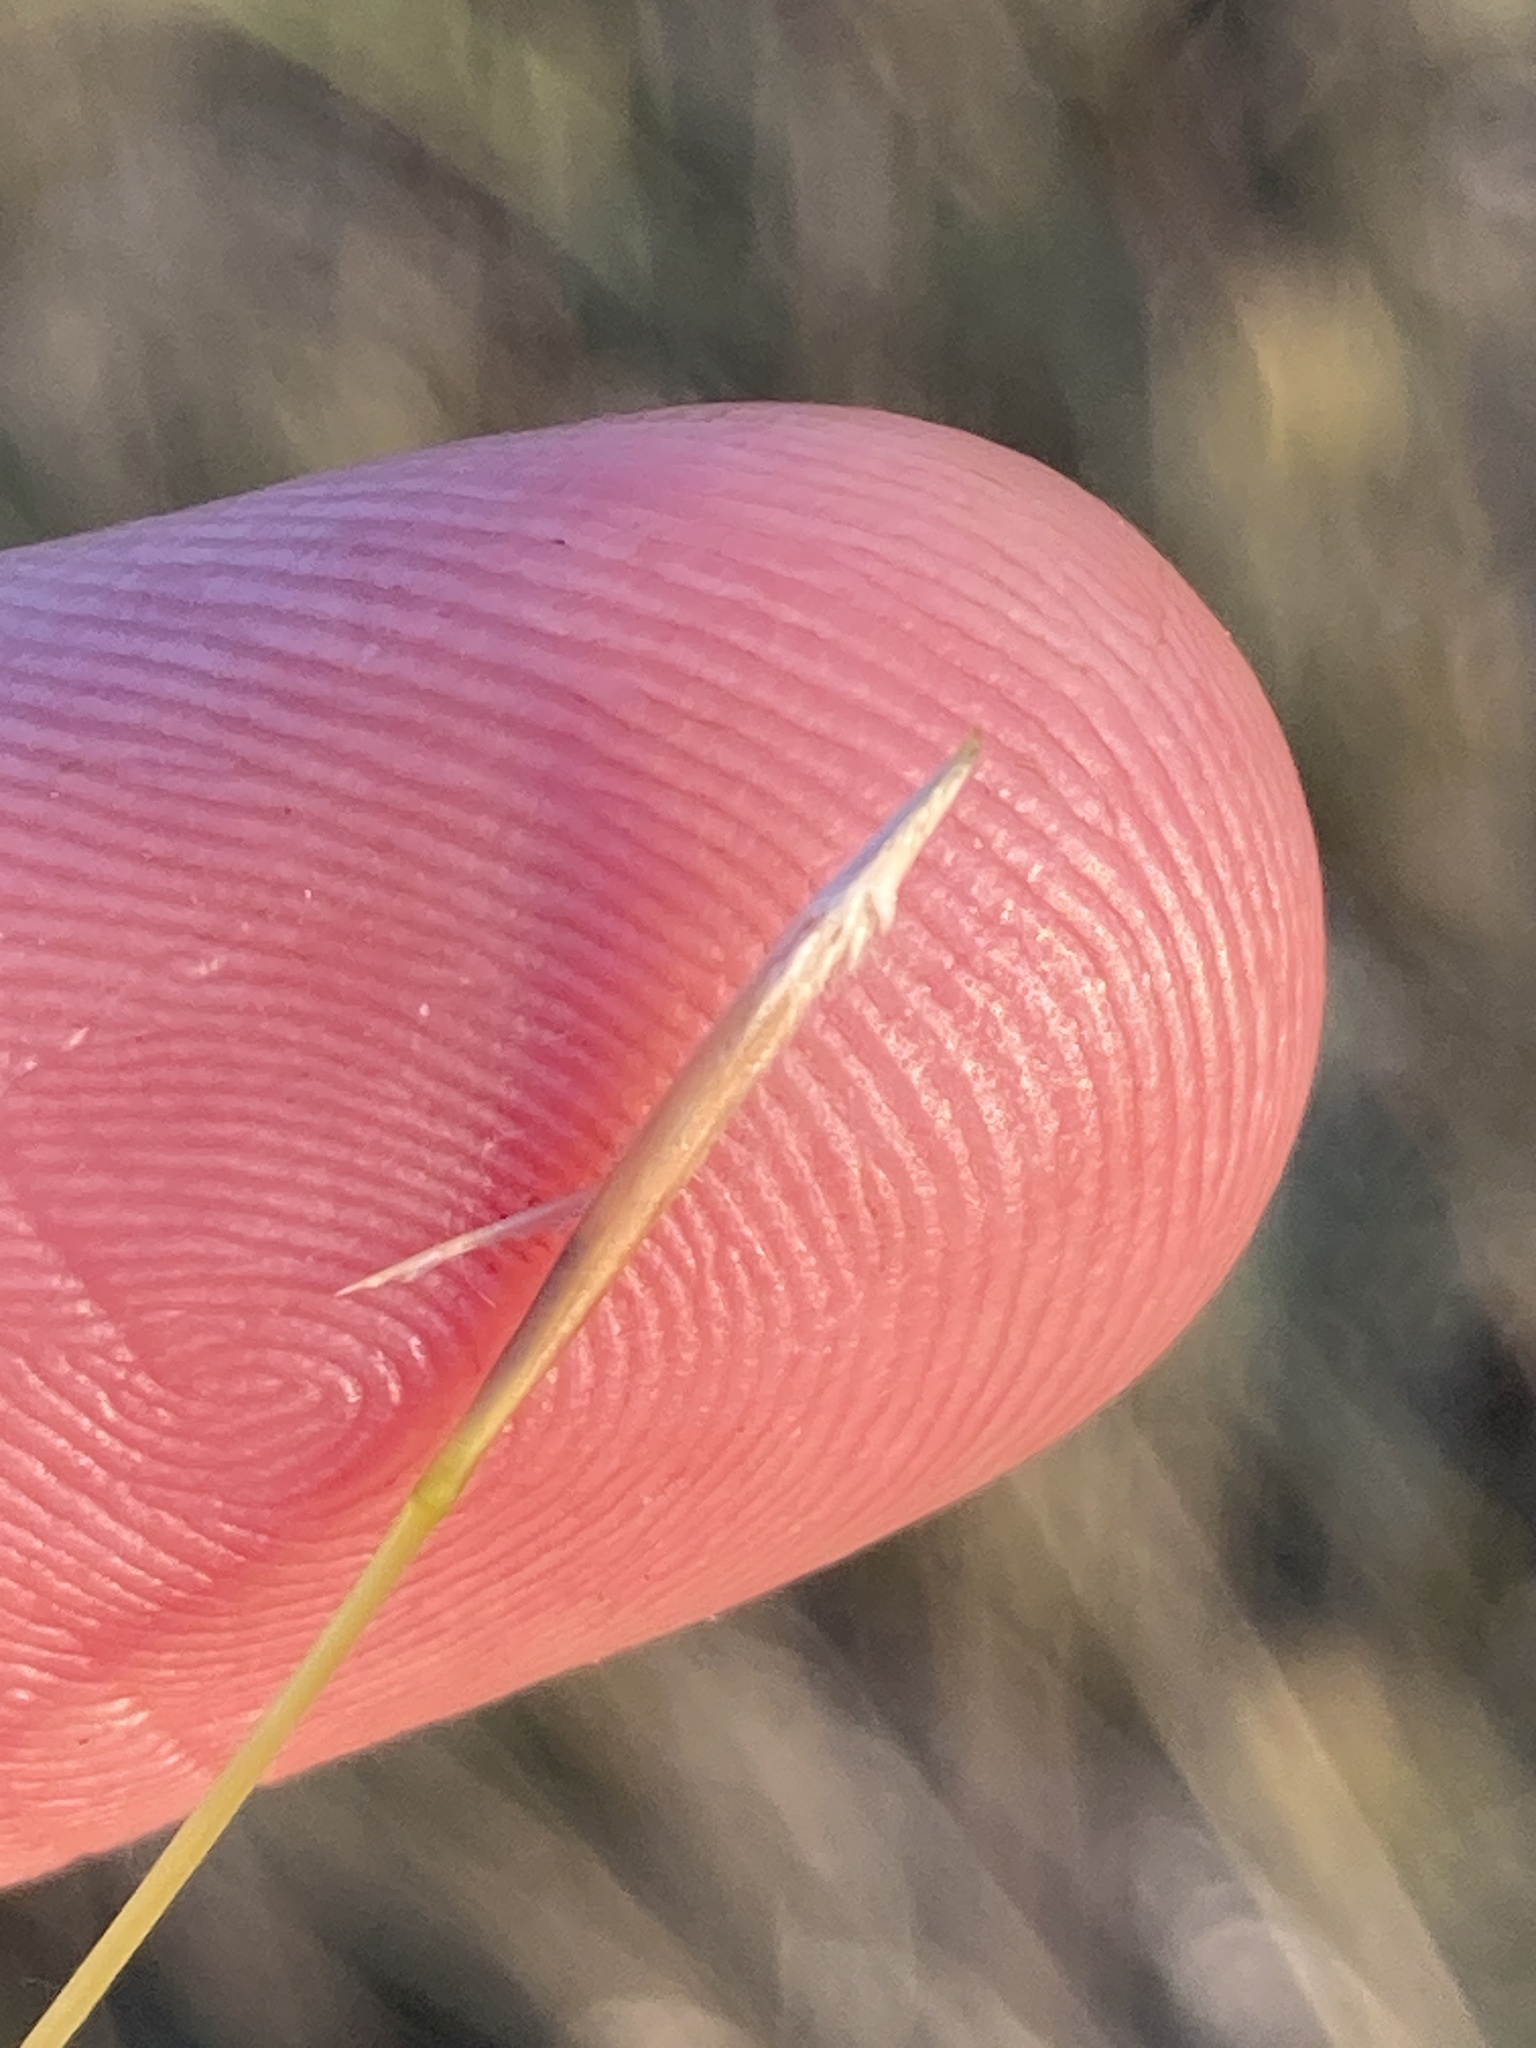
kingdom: Plantae
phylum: Tracheophyta
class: Liliopsida
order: Poales
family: Poaceae
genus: Stipa
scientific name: Stipa capillata
